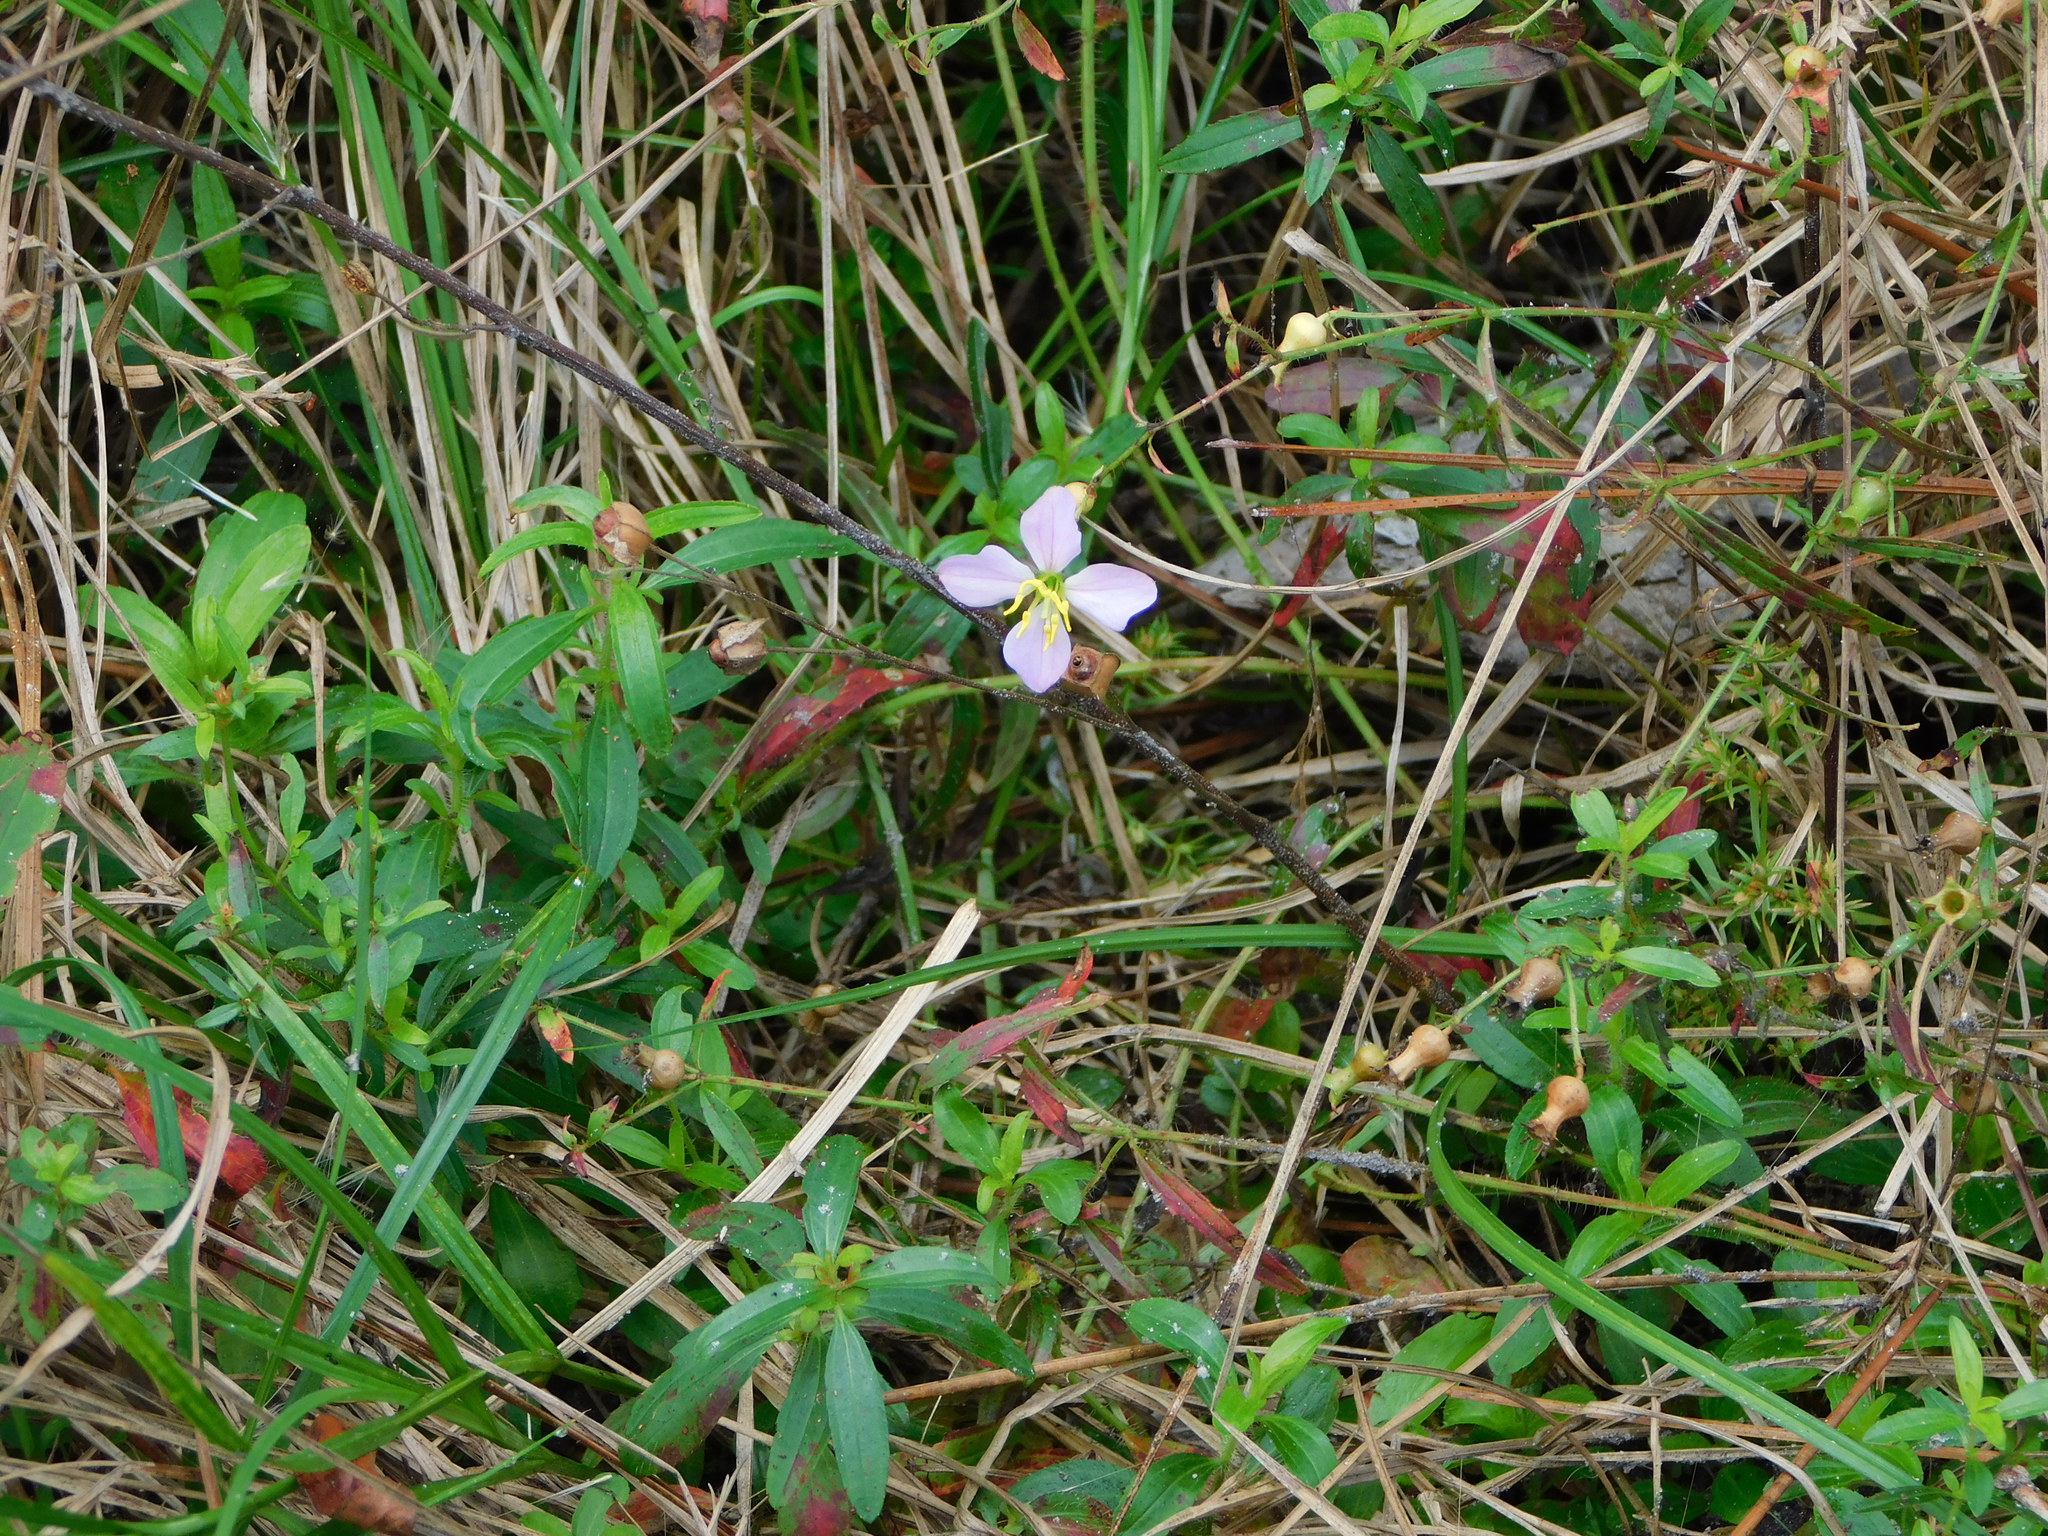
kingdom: Plantae
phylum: Tracheophyta
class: Magnoliopsida
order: Myrtales
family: Melastomataceae
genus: Rhexia
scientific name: Rhexia mariana
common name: Dull meadow-pitcher
